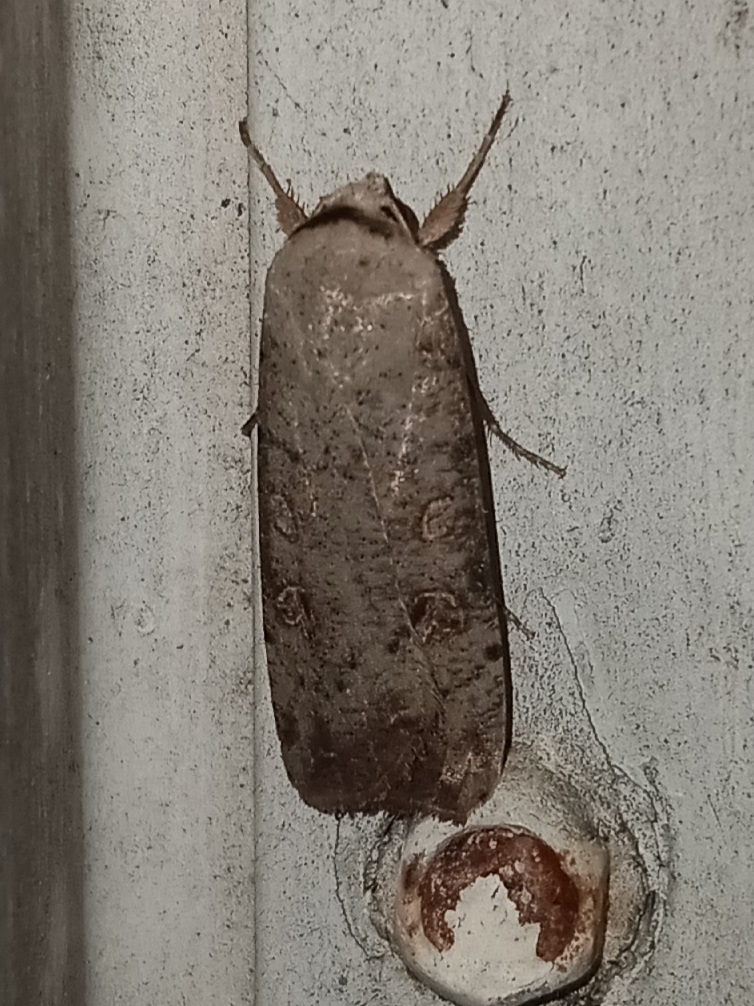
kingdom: Animalia
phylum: Arthropoda
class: Insecta
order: Lepidoptera
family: Noctuidae
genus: Anicla
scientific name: Anicla infecta
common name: Green cutworm
